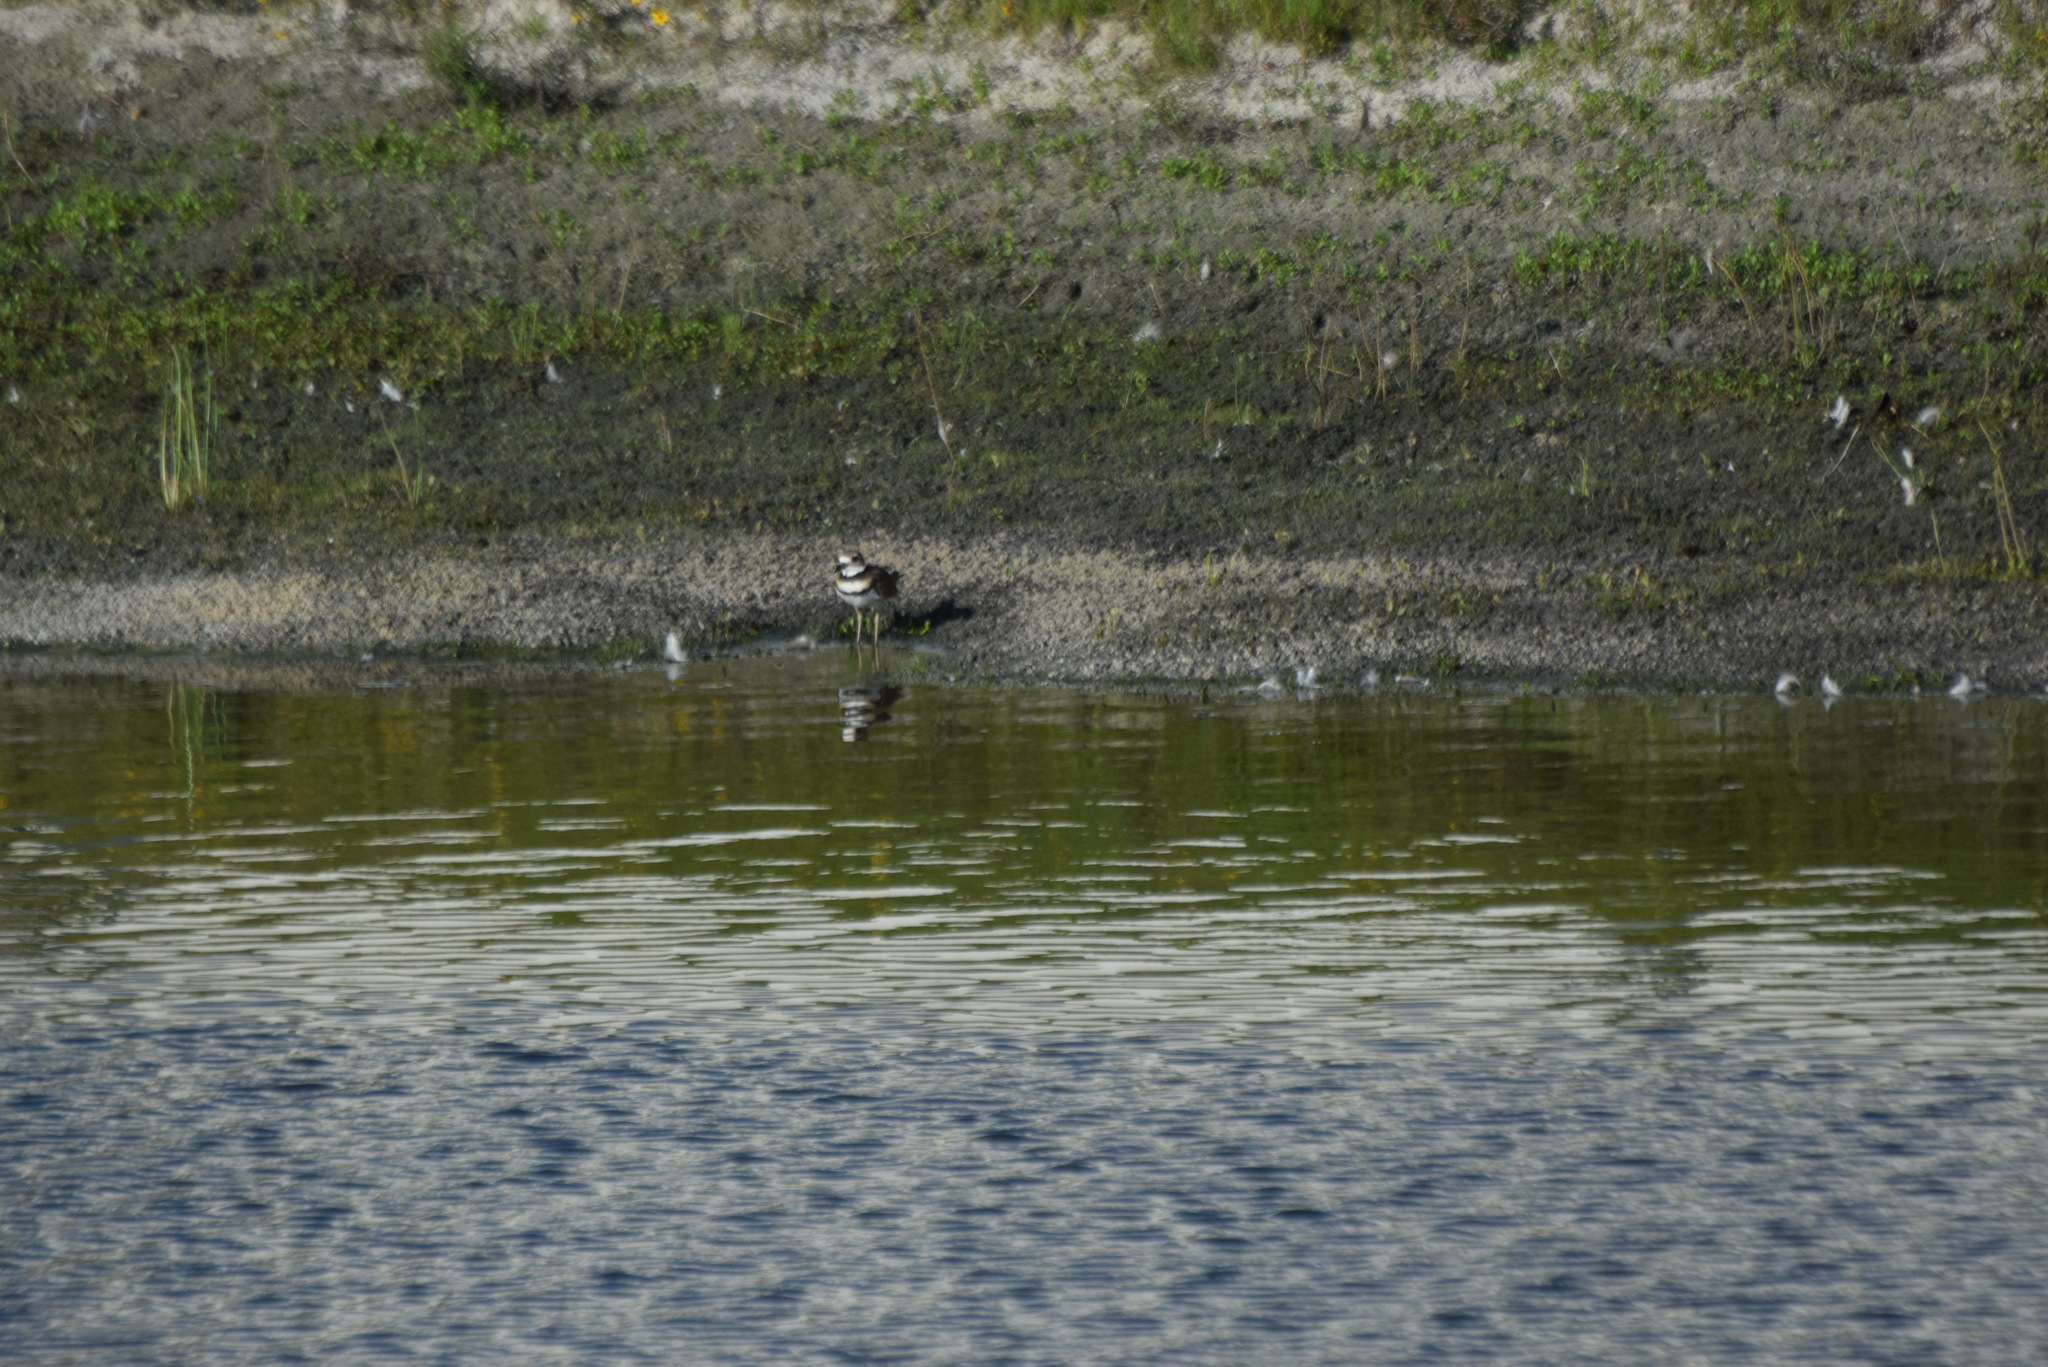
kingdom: Animalia
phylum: Chordata
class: Aves
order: Charadriiformes
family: Charadriidae
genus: Charadrius
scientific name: Charadrius vociferus
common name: Killdeer
